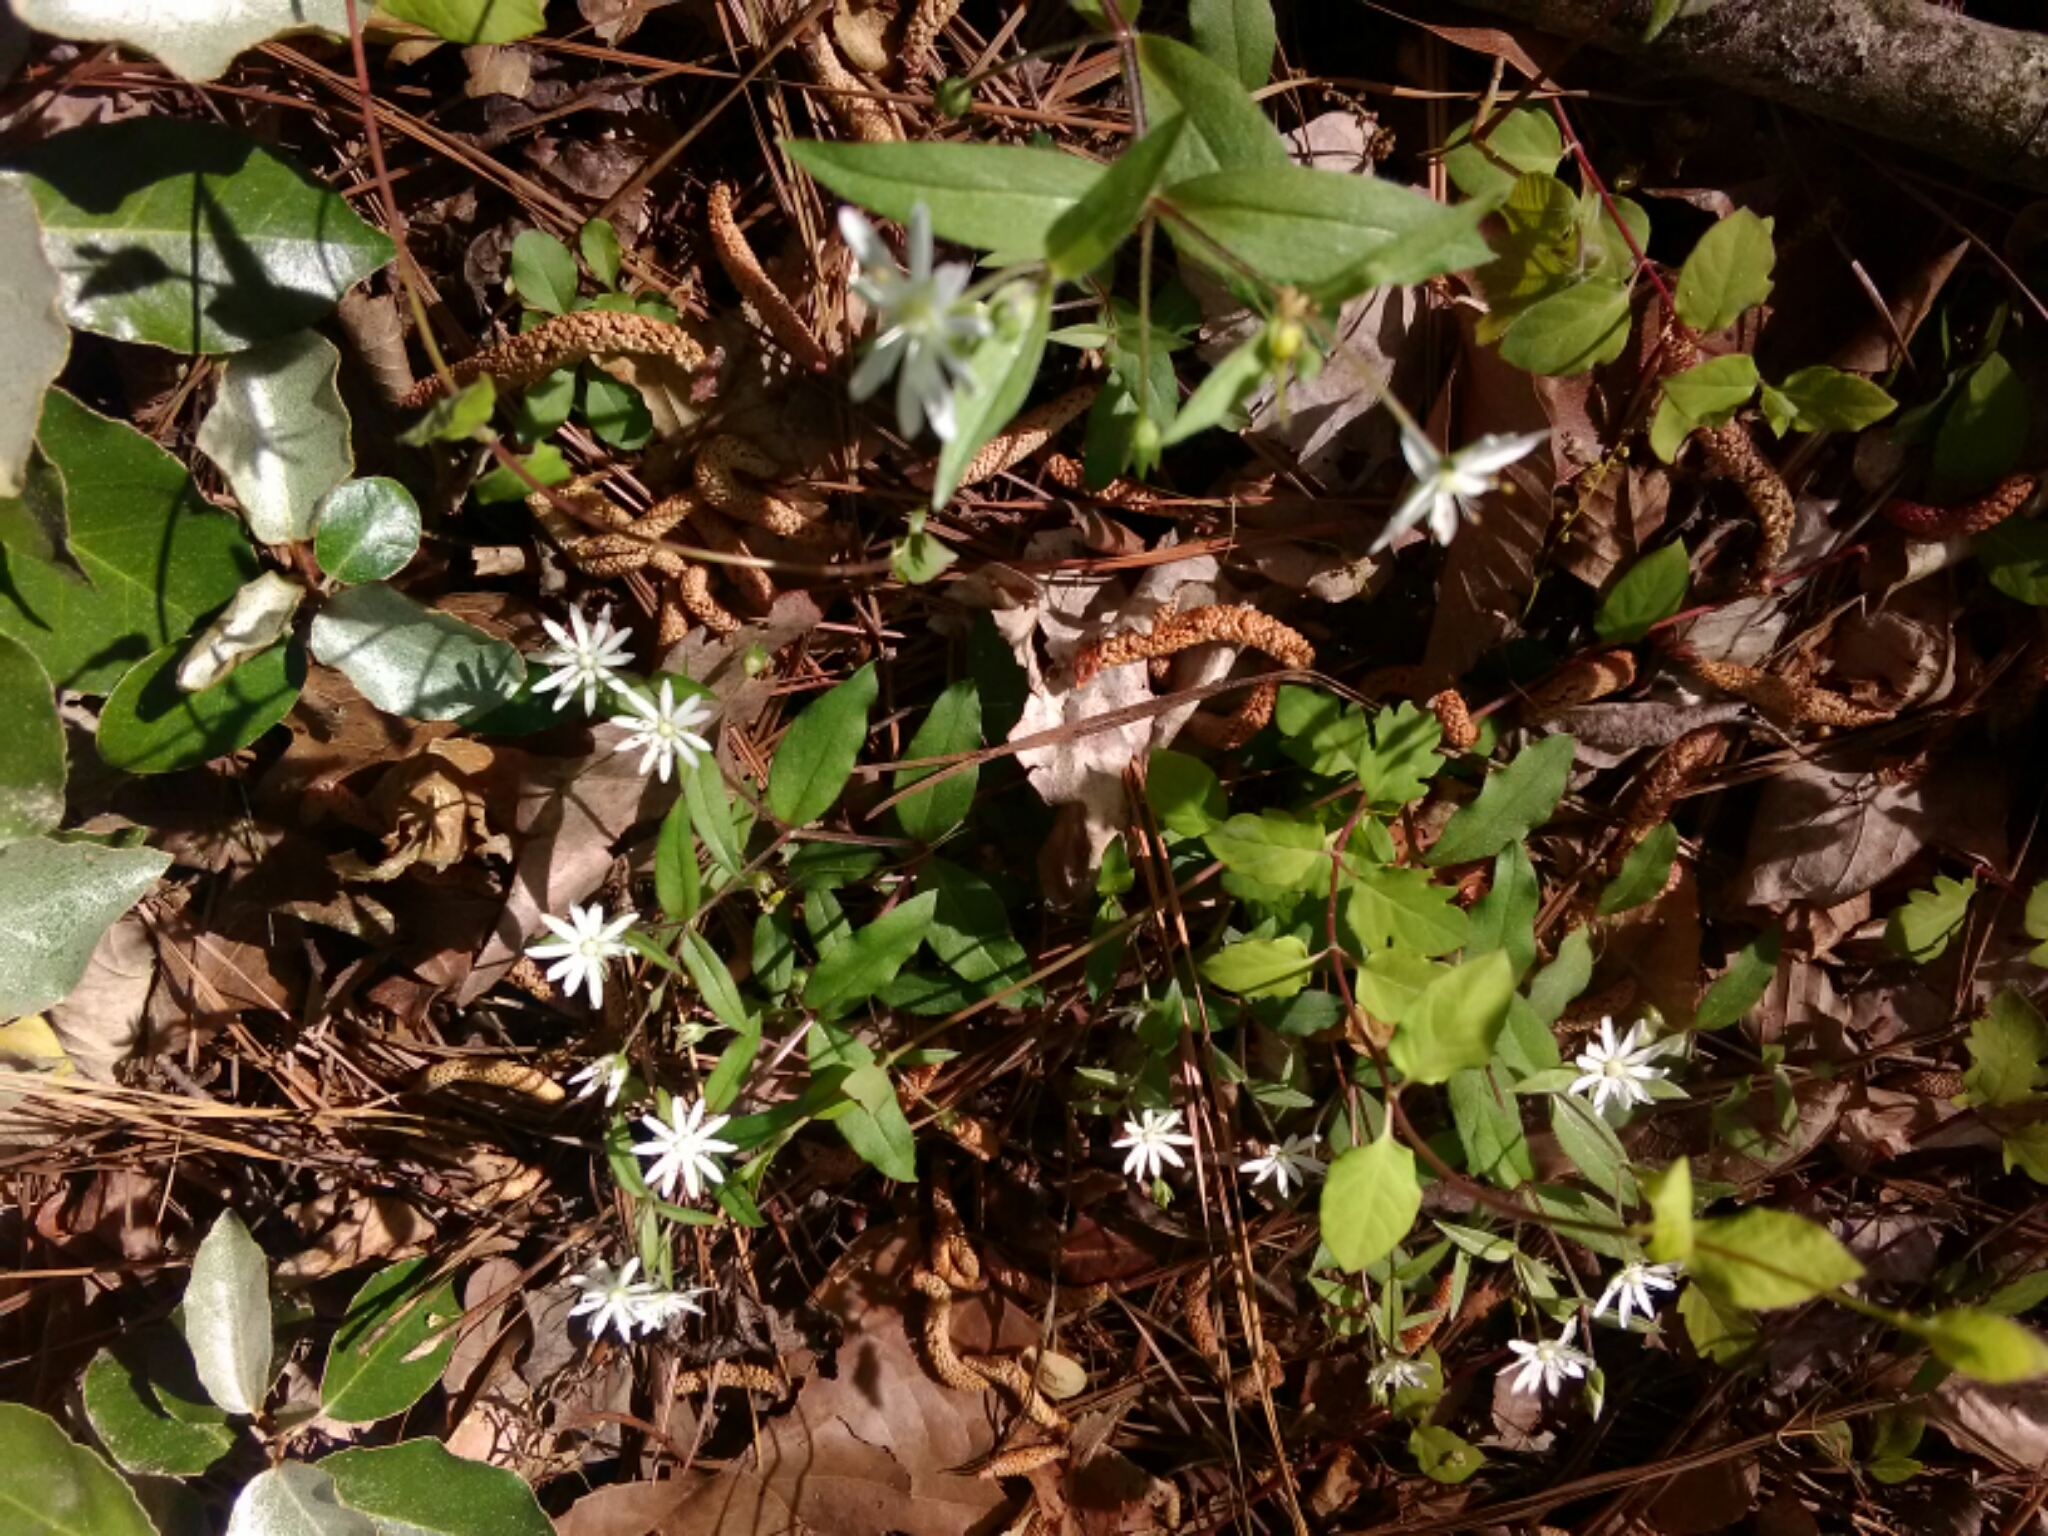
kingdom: Plantae
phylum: Tracheophyta
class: Magnoliopsida
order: Caryophyllales
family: Caryophyllaceae
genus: Stellaria
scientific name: Stellaria pubera
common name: Star chickweed
